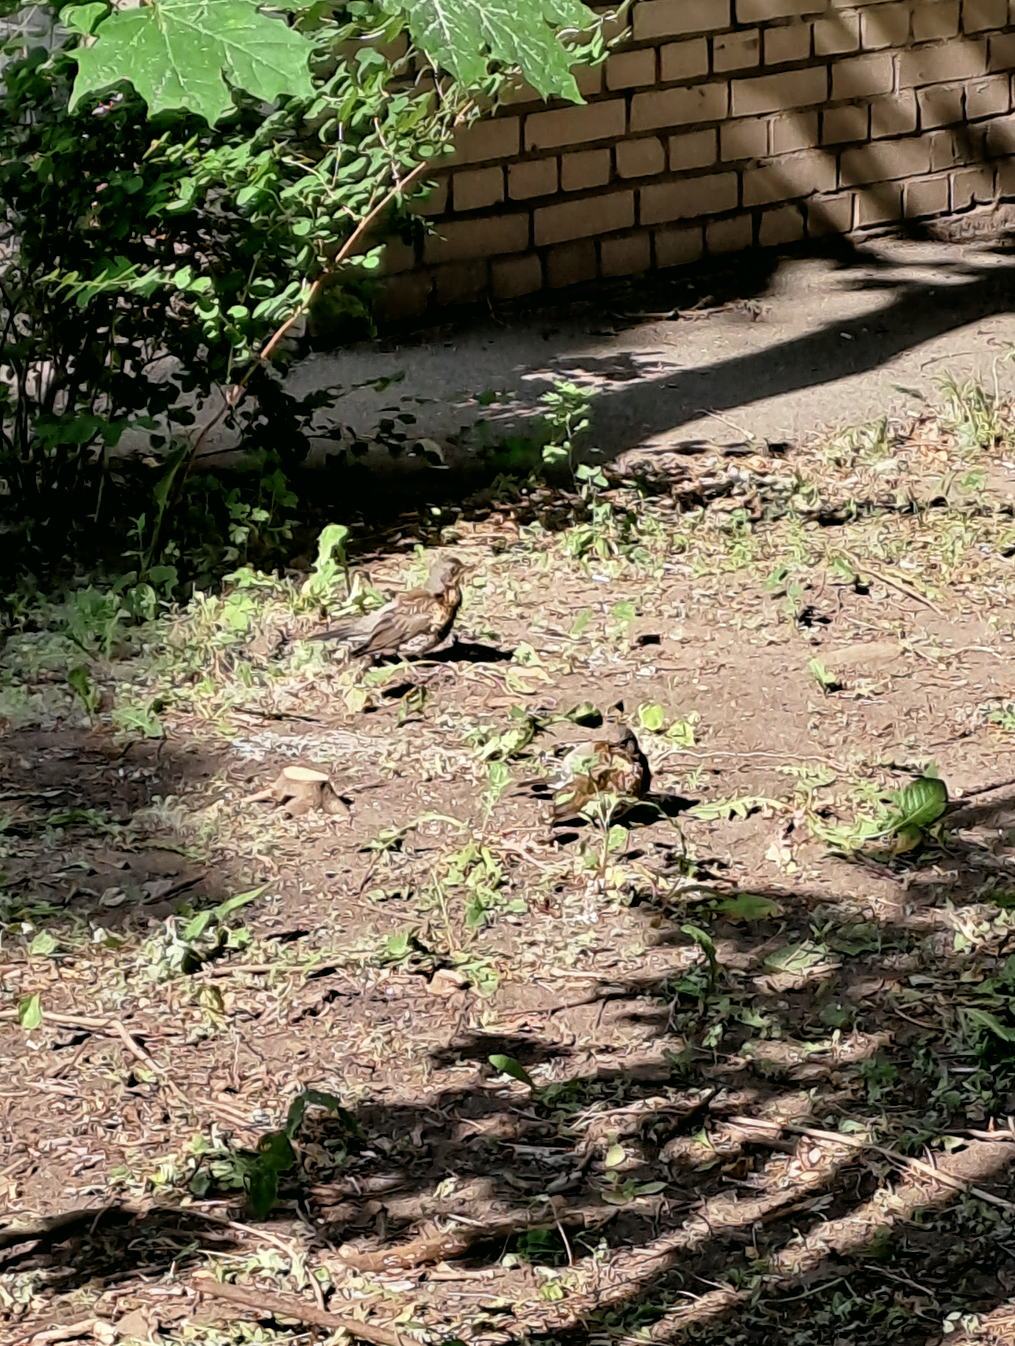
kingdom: Animalia
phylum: Chordata
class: Aves
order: Passeriformes
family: Turdidae
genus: Turdus
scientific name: Turdus pilaris
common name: Fieldfare
